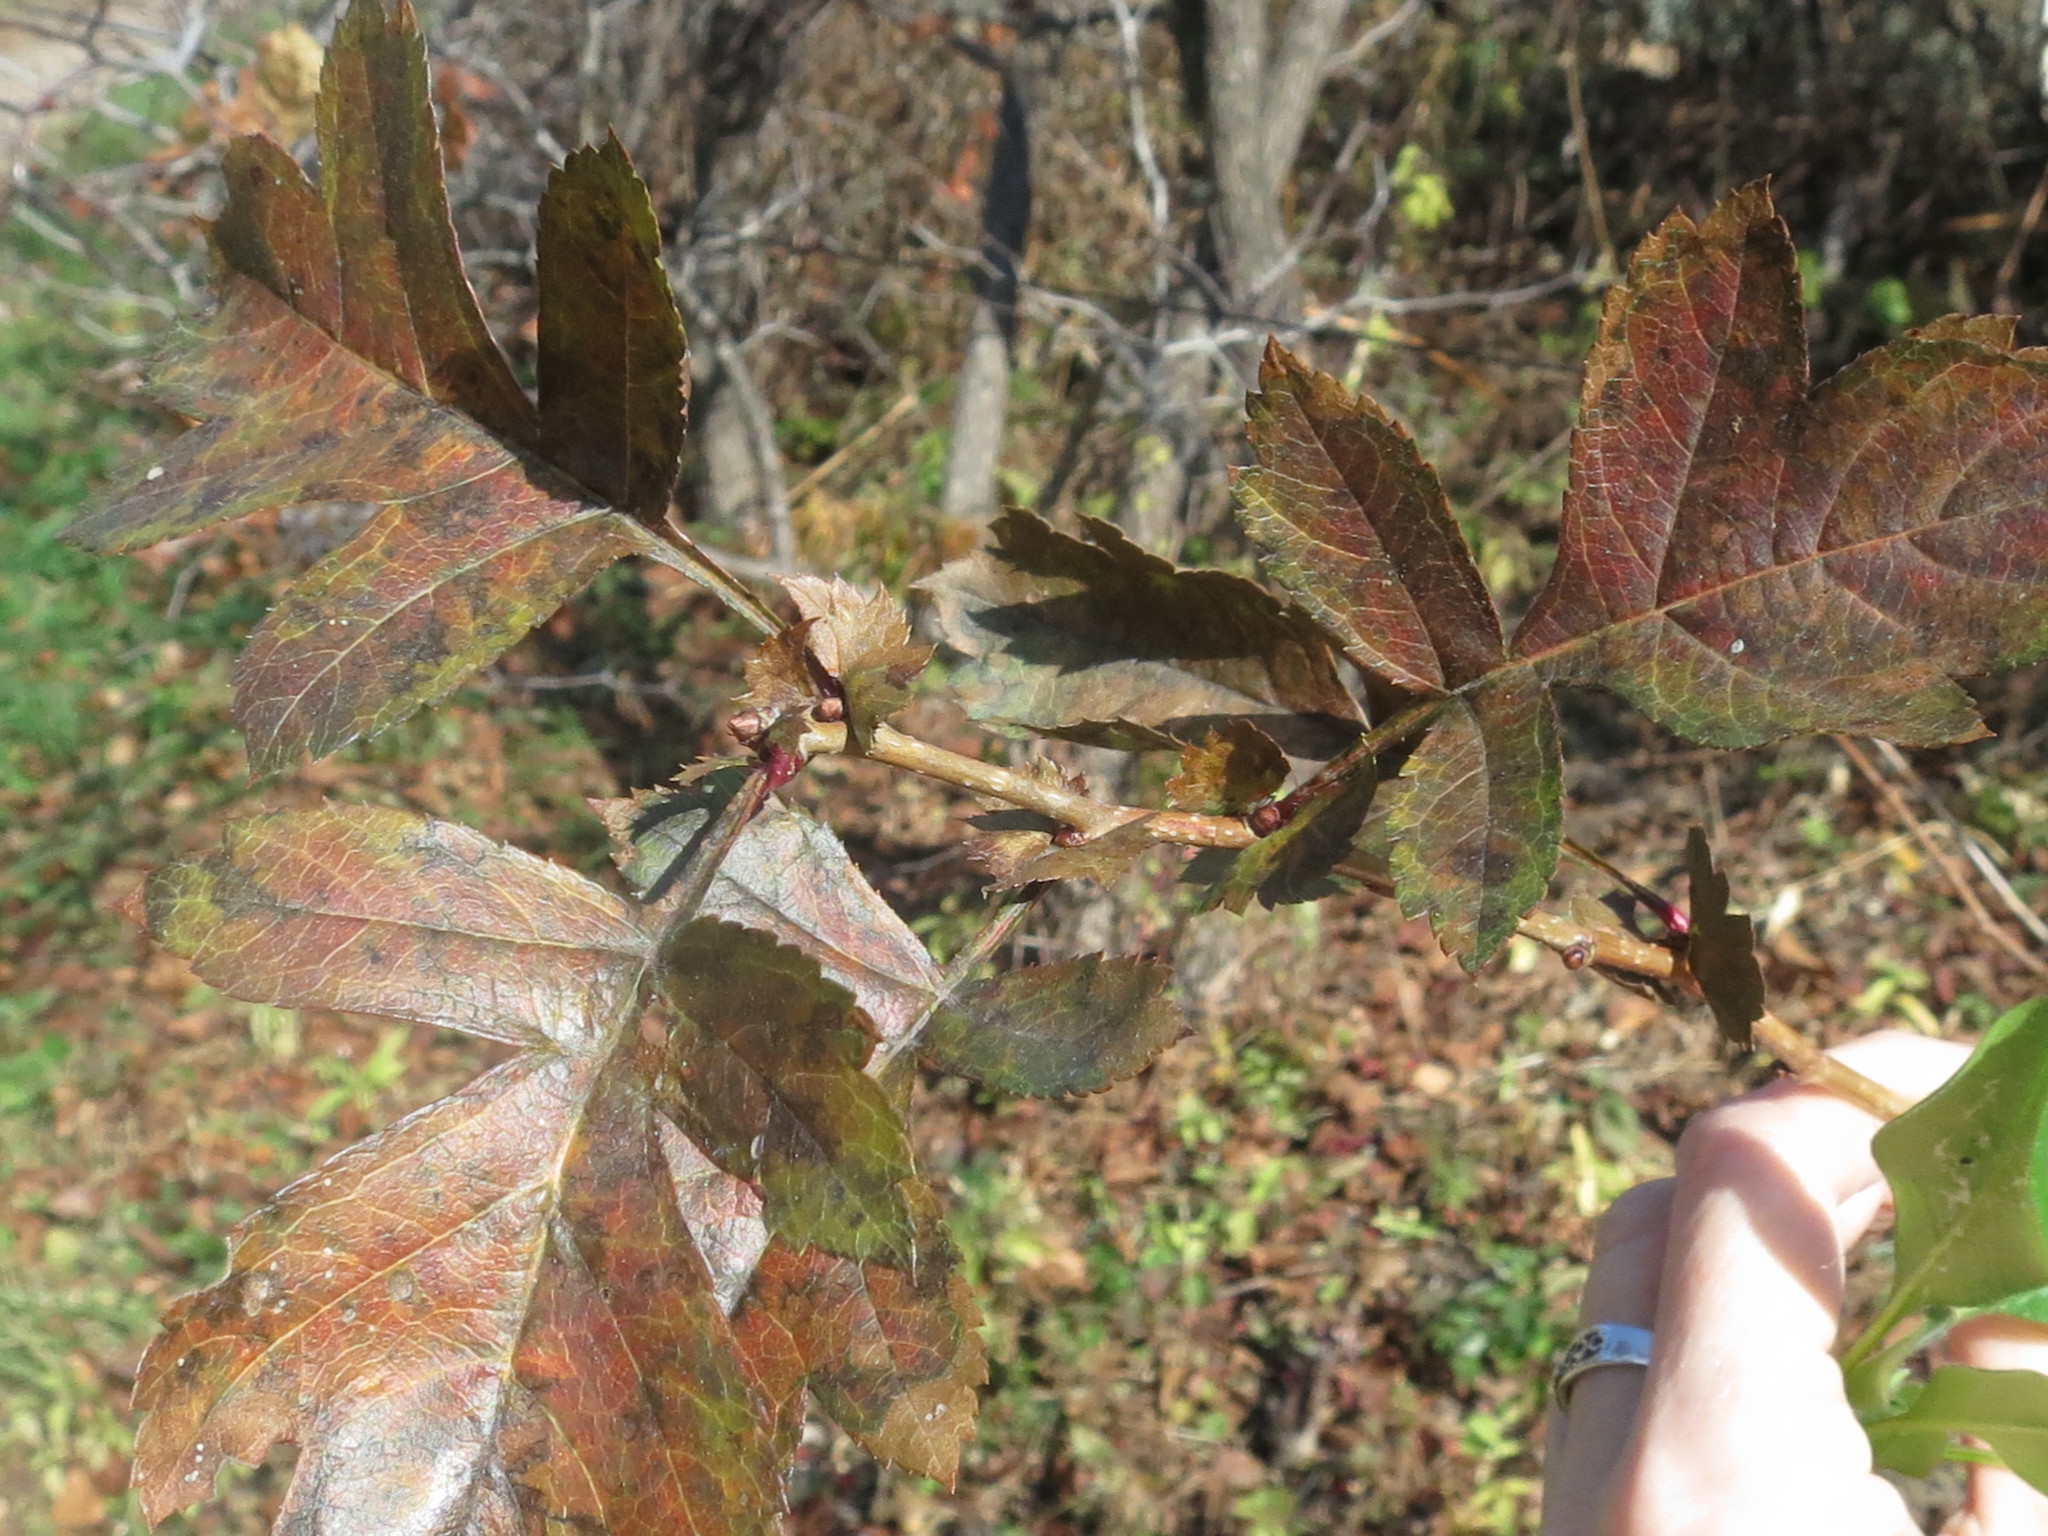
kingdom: Plantae
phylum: Tracheophyta
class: Magnoliopsida
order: Rosales
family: Rosaceae
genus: Crataegus
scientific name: Crataegus pinnatifida
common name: Chinese haw
